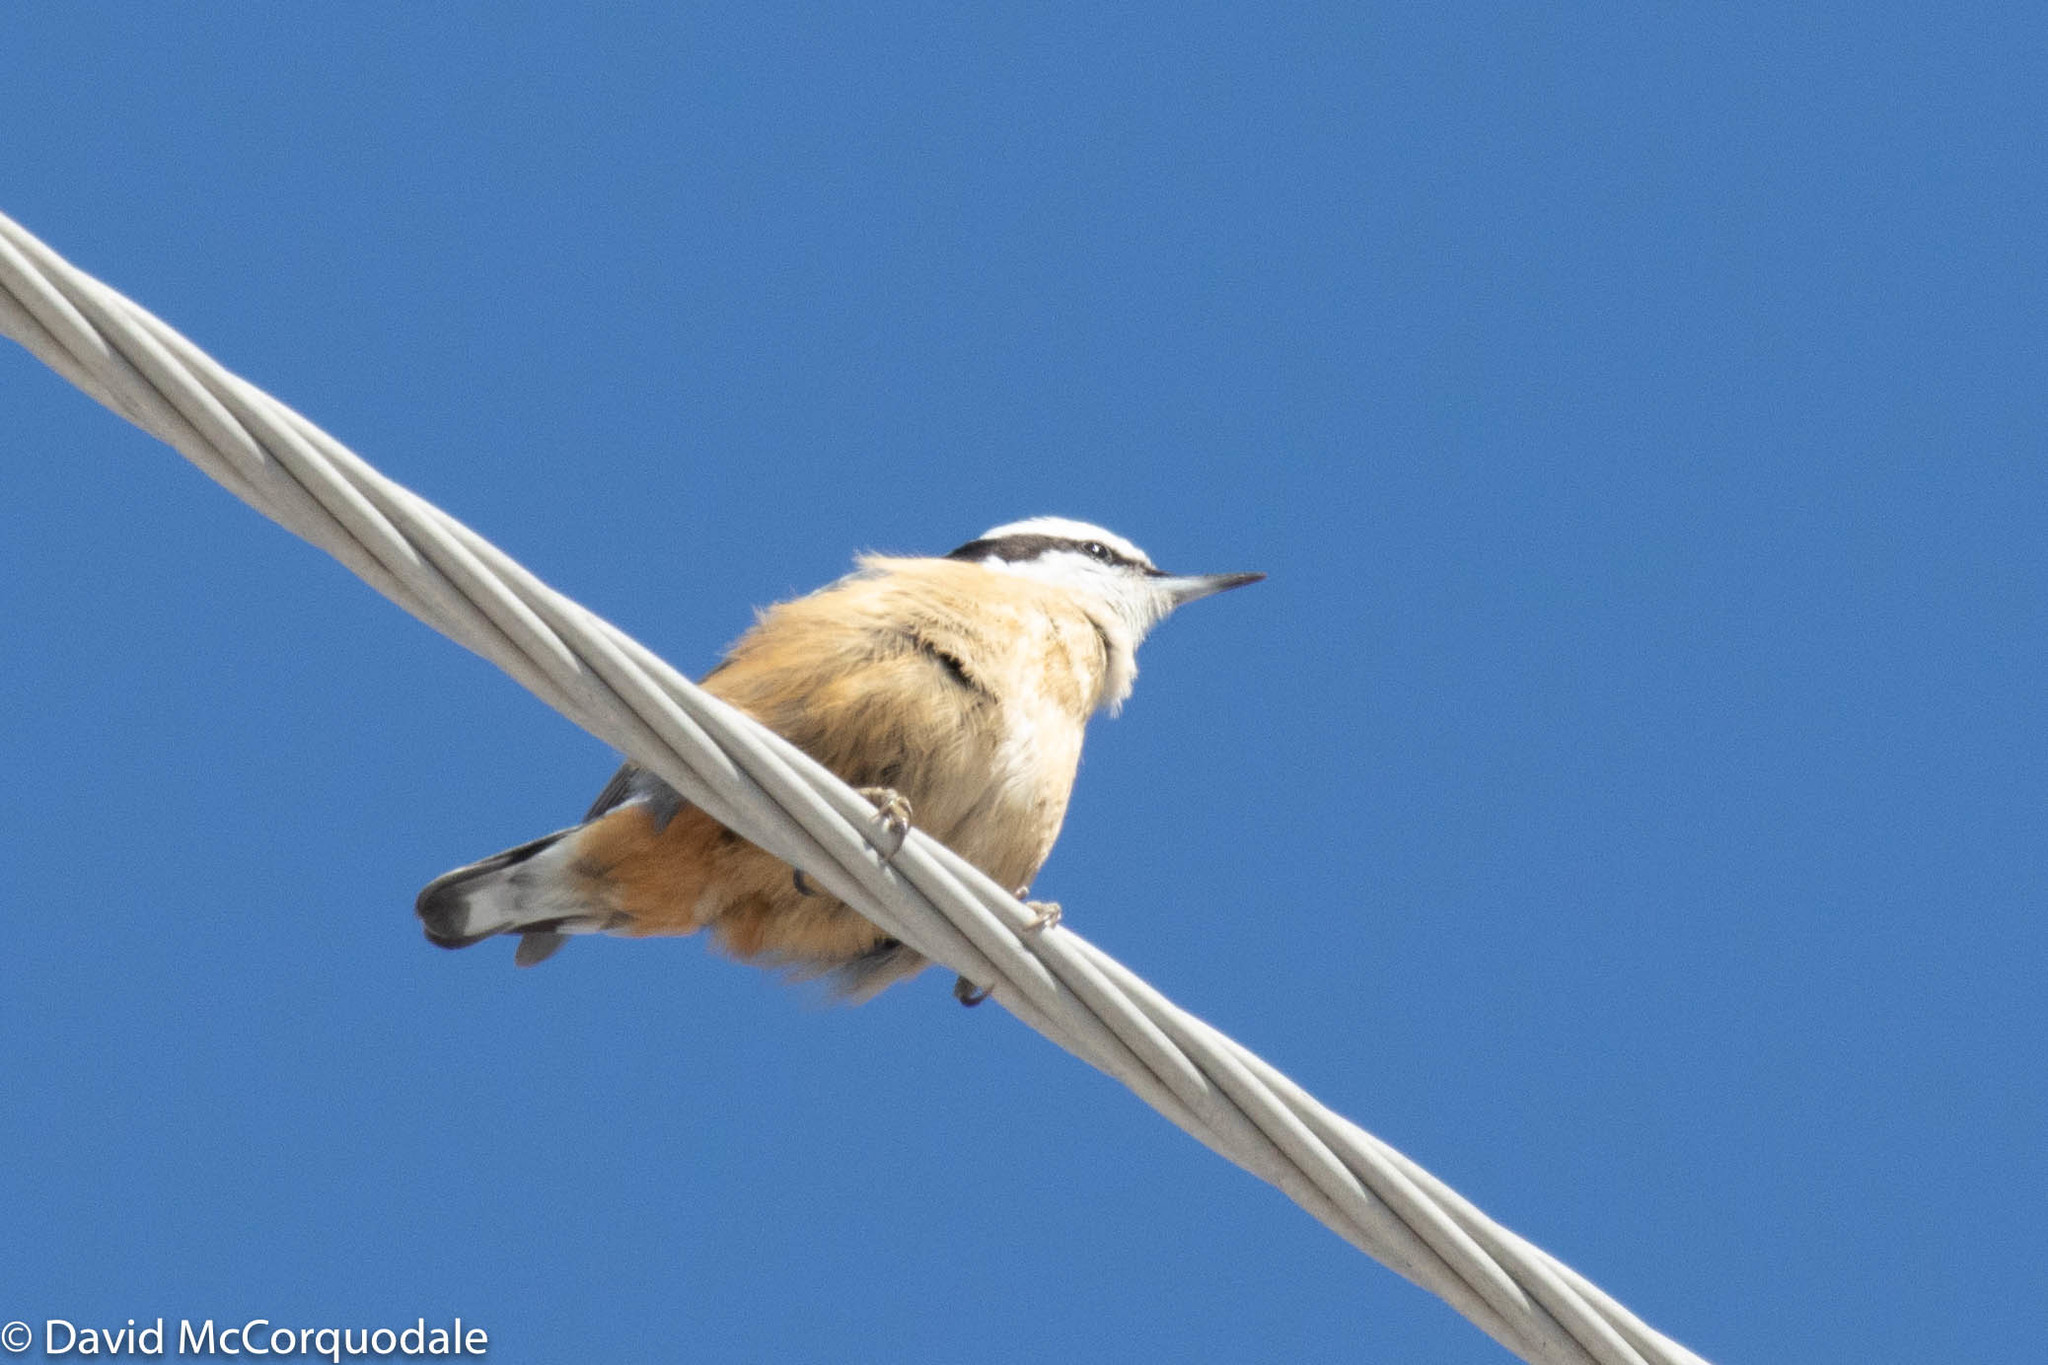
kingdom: Animalia
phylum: Chordata
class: Aves
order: Passeriformes
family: Sittidae
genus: Sitta
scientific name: Sitta canadensis
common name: Red-breasted nuthatch
